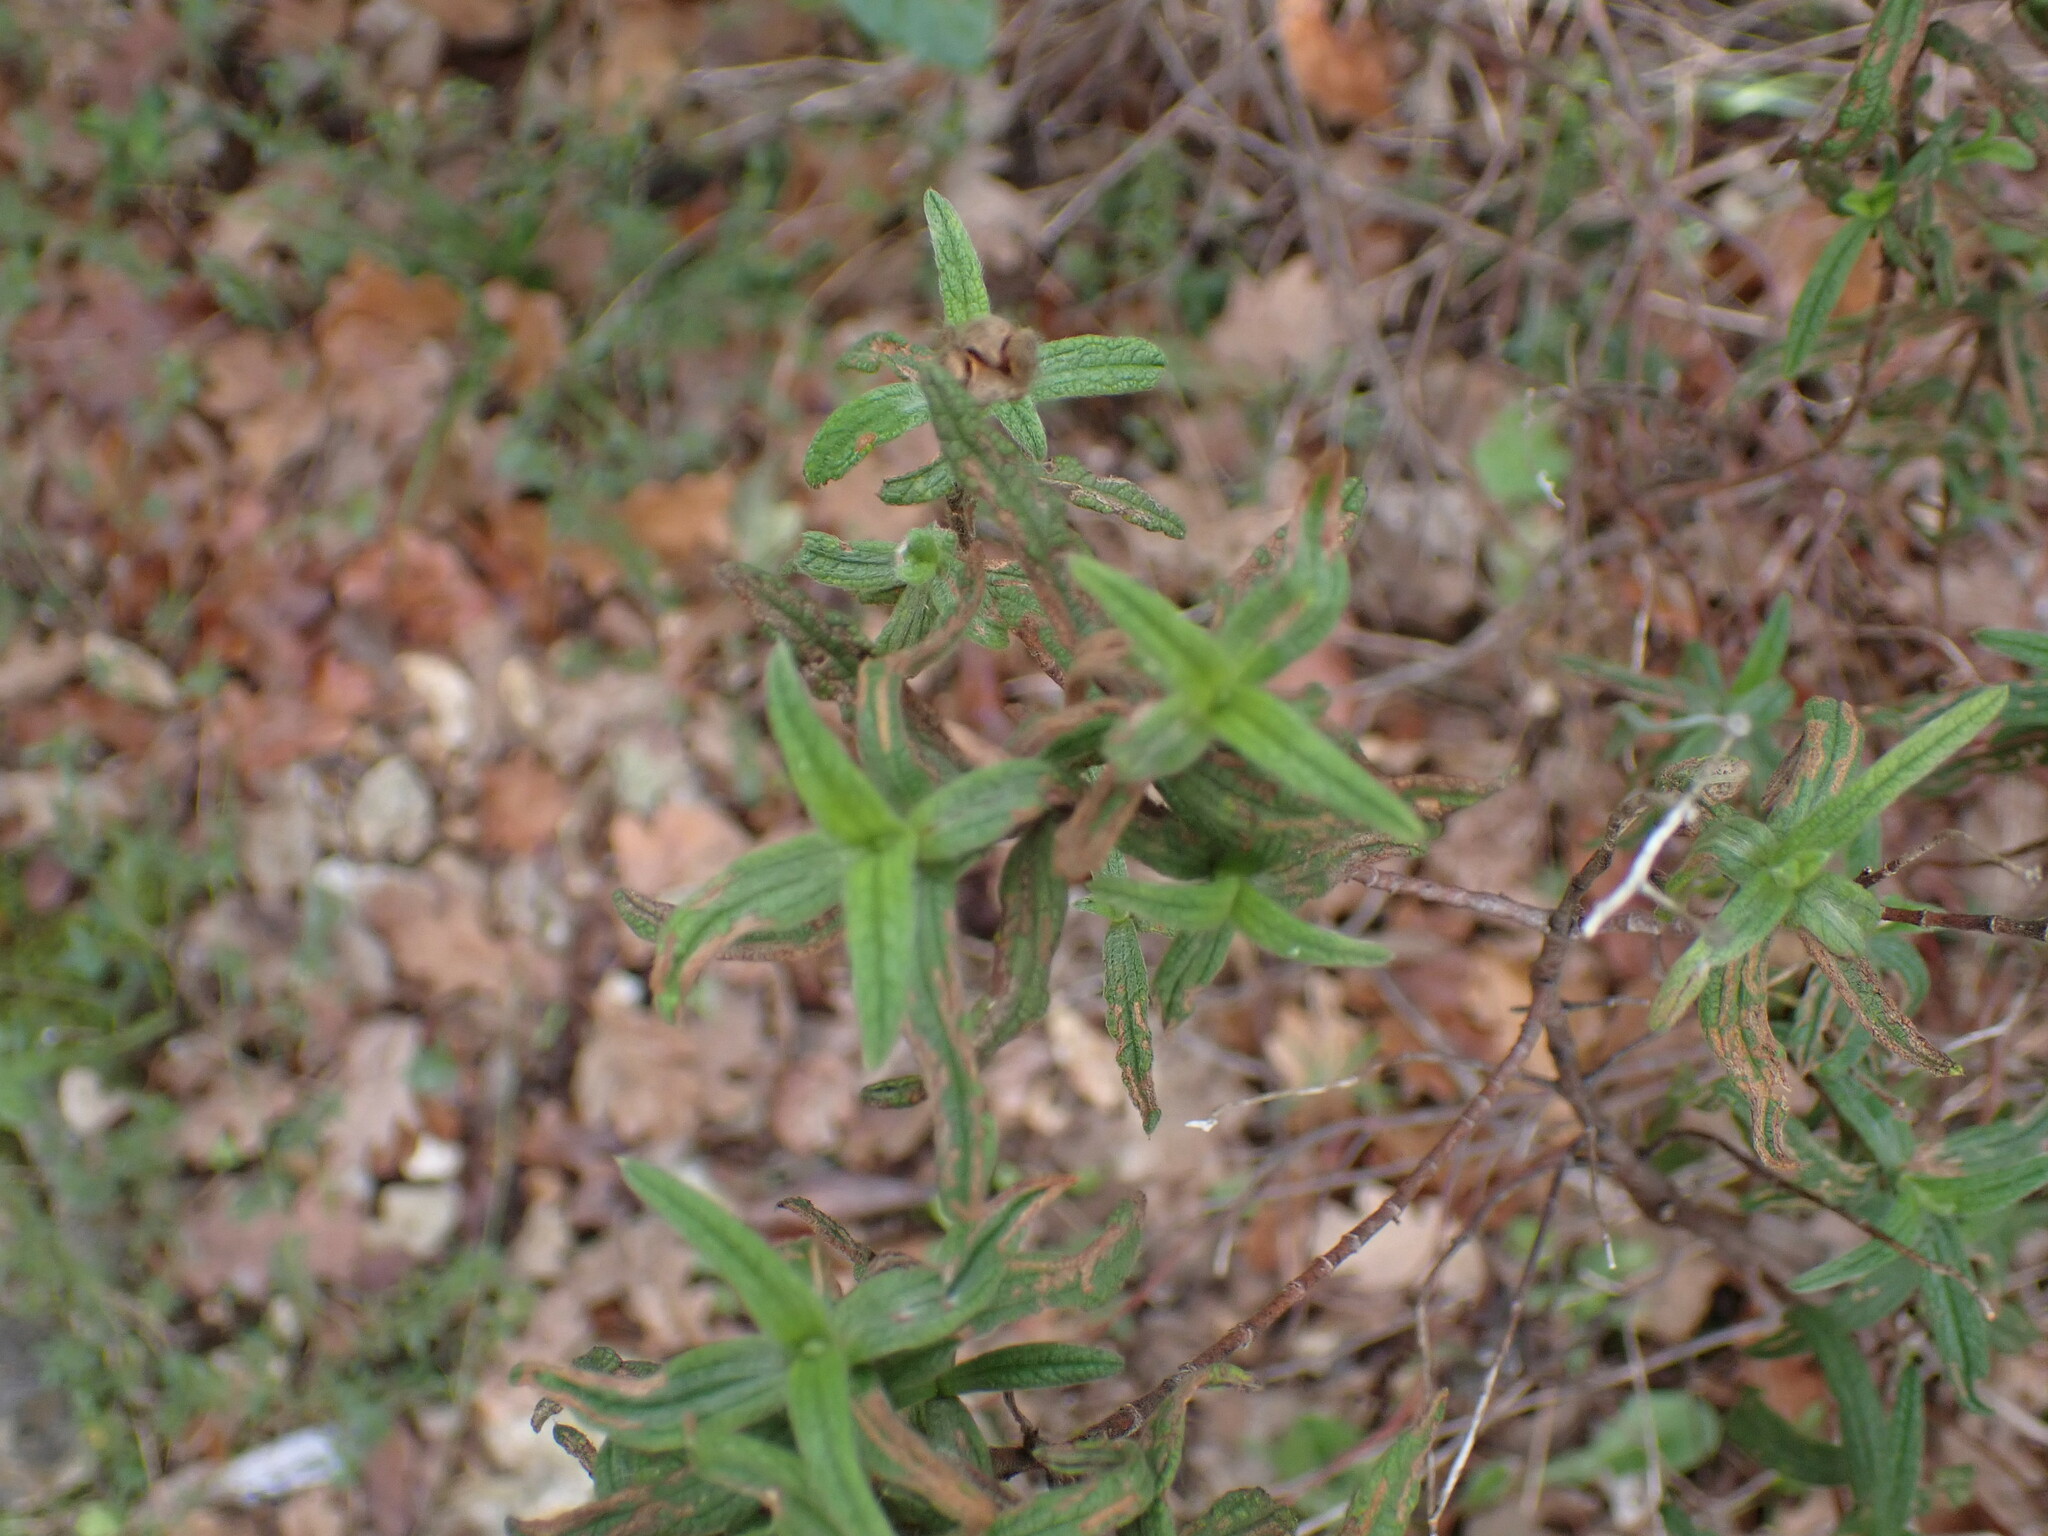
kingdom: Plantae
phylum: Tracheophyta
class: Magnoliopsida
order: Malvales
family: Cistaceae
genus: Cistus
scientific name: Cistus monspeliensis
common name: Montpelier cistus
